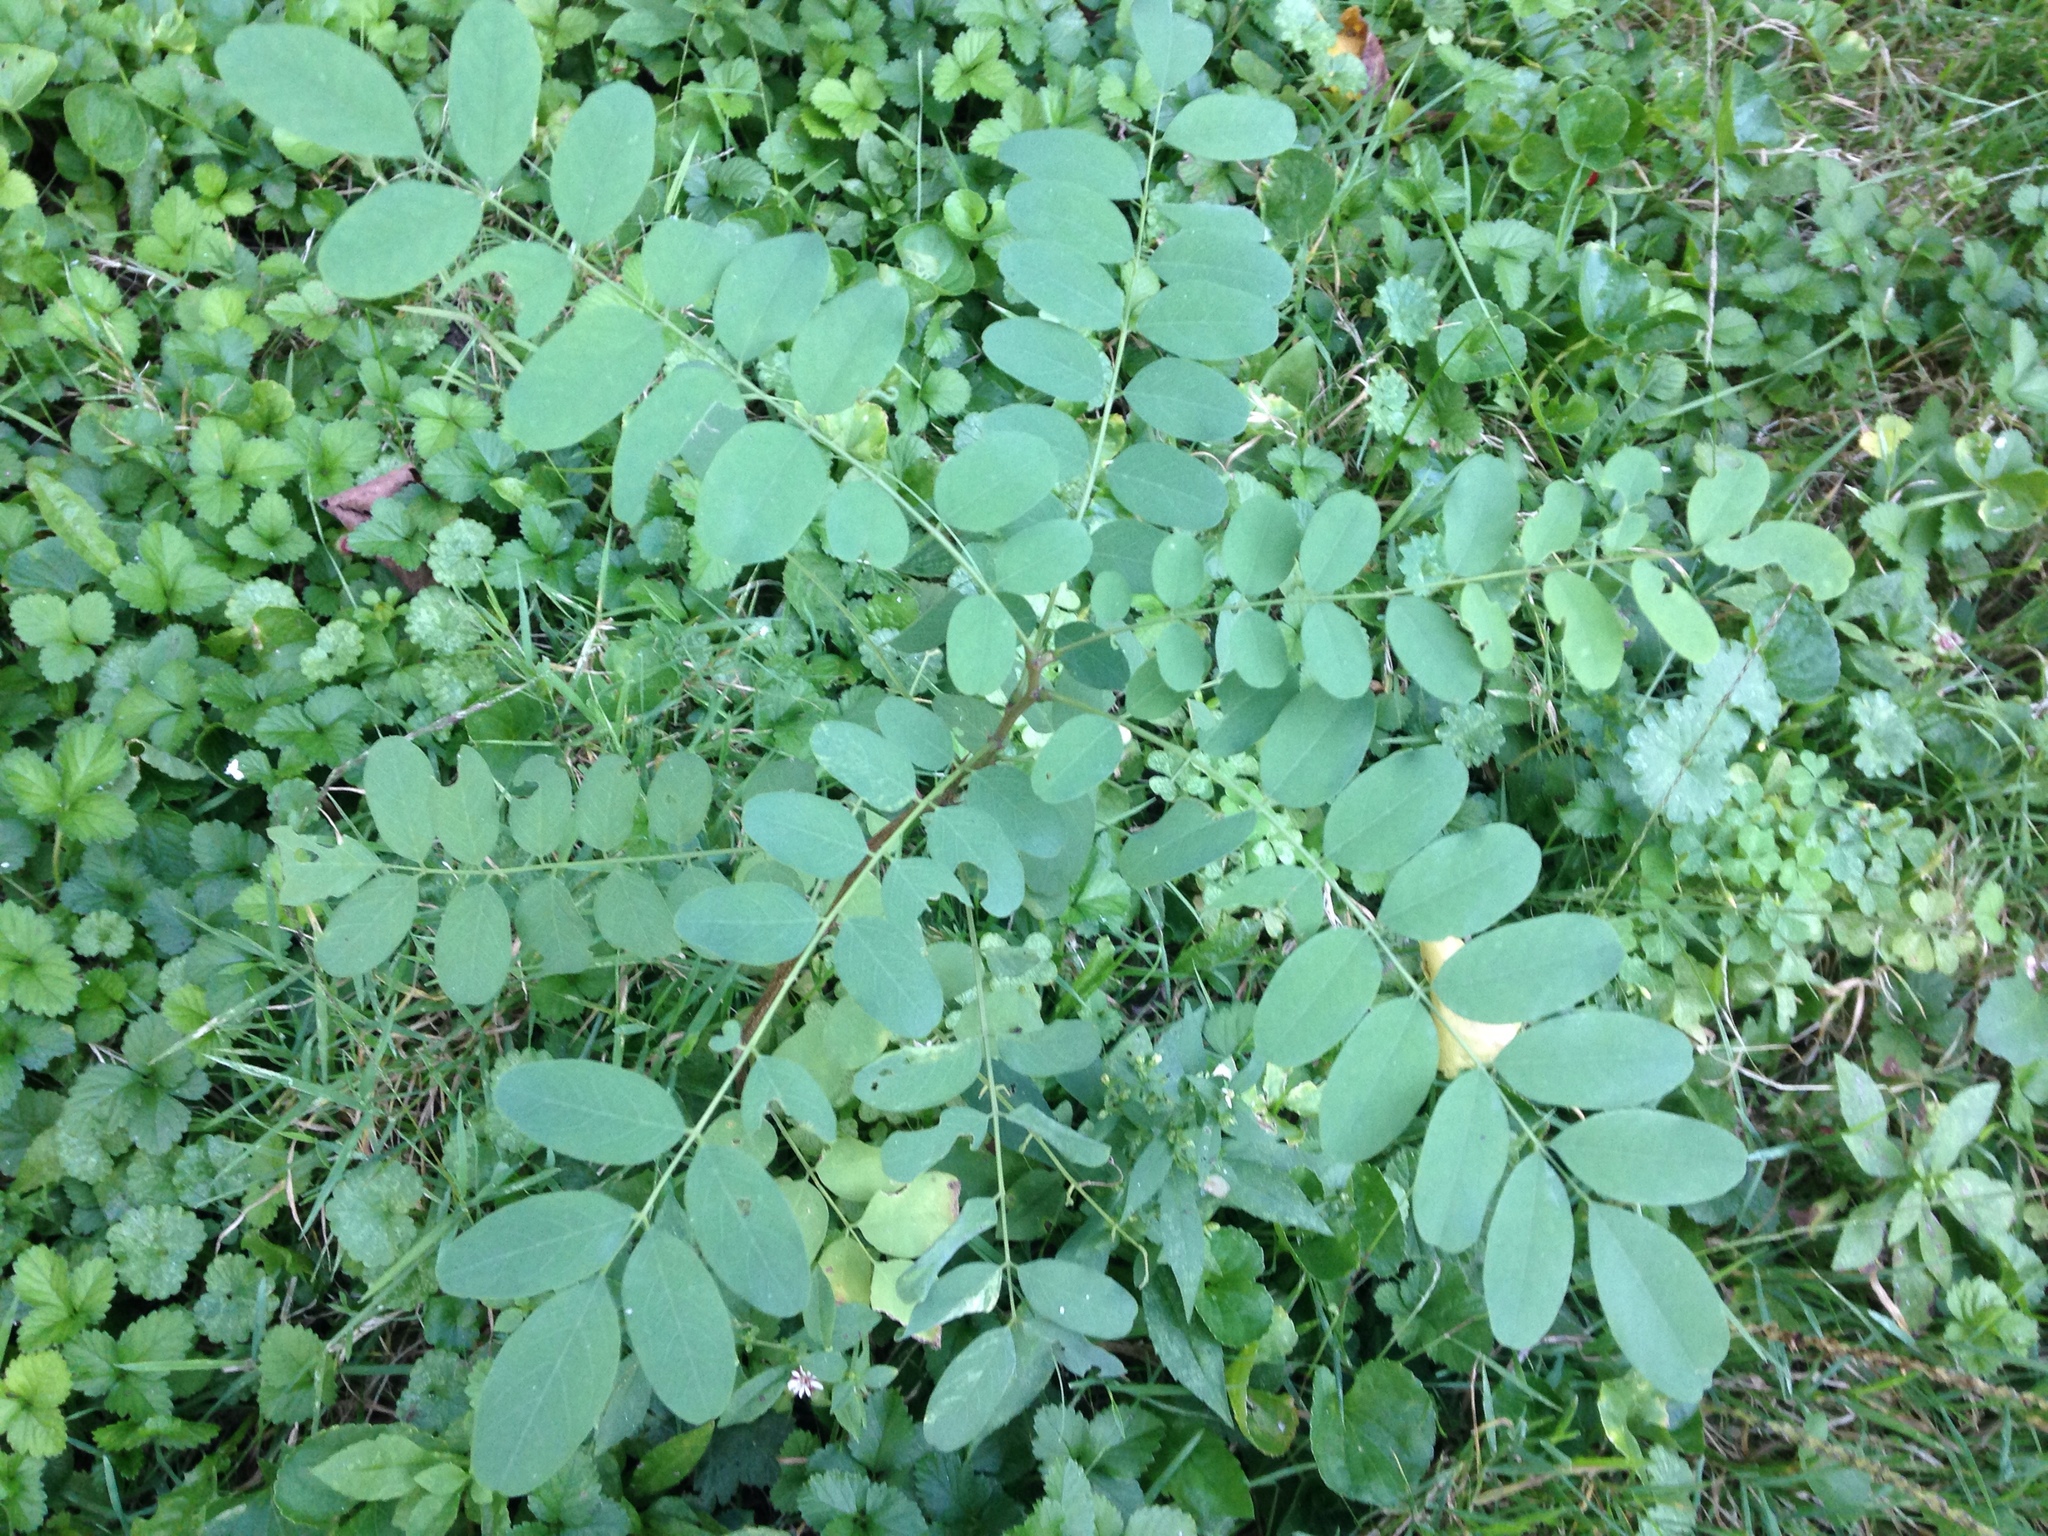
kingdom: Plantae
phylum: Tracheophyta
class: Magnoliopsida
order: Fabales
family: Fabaceae
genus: Robinia
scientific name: Robinia pseudoacacia
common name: Black locust
